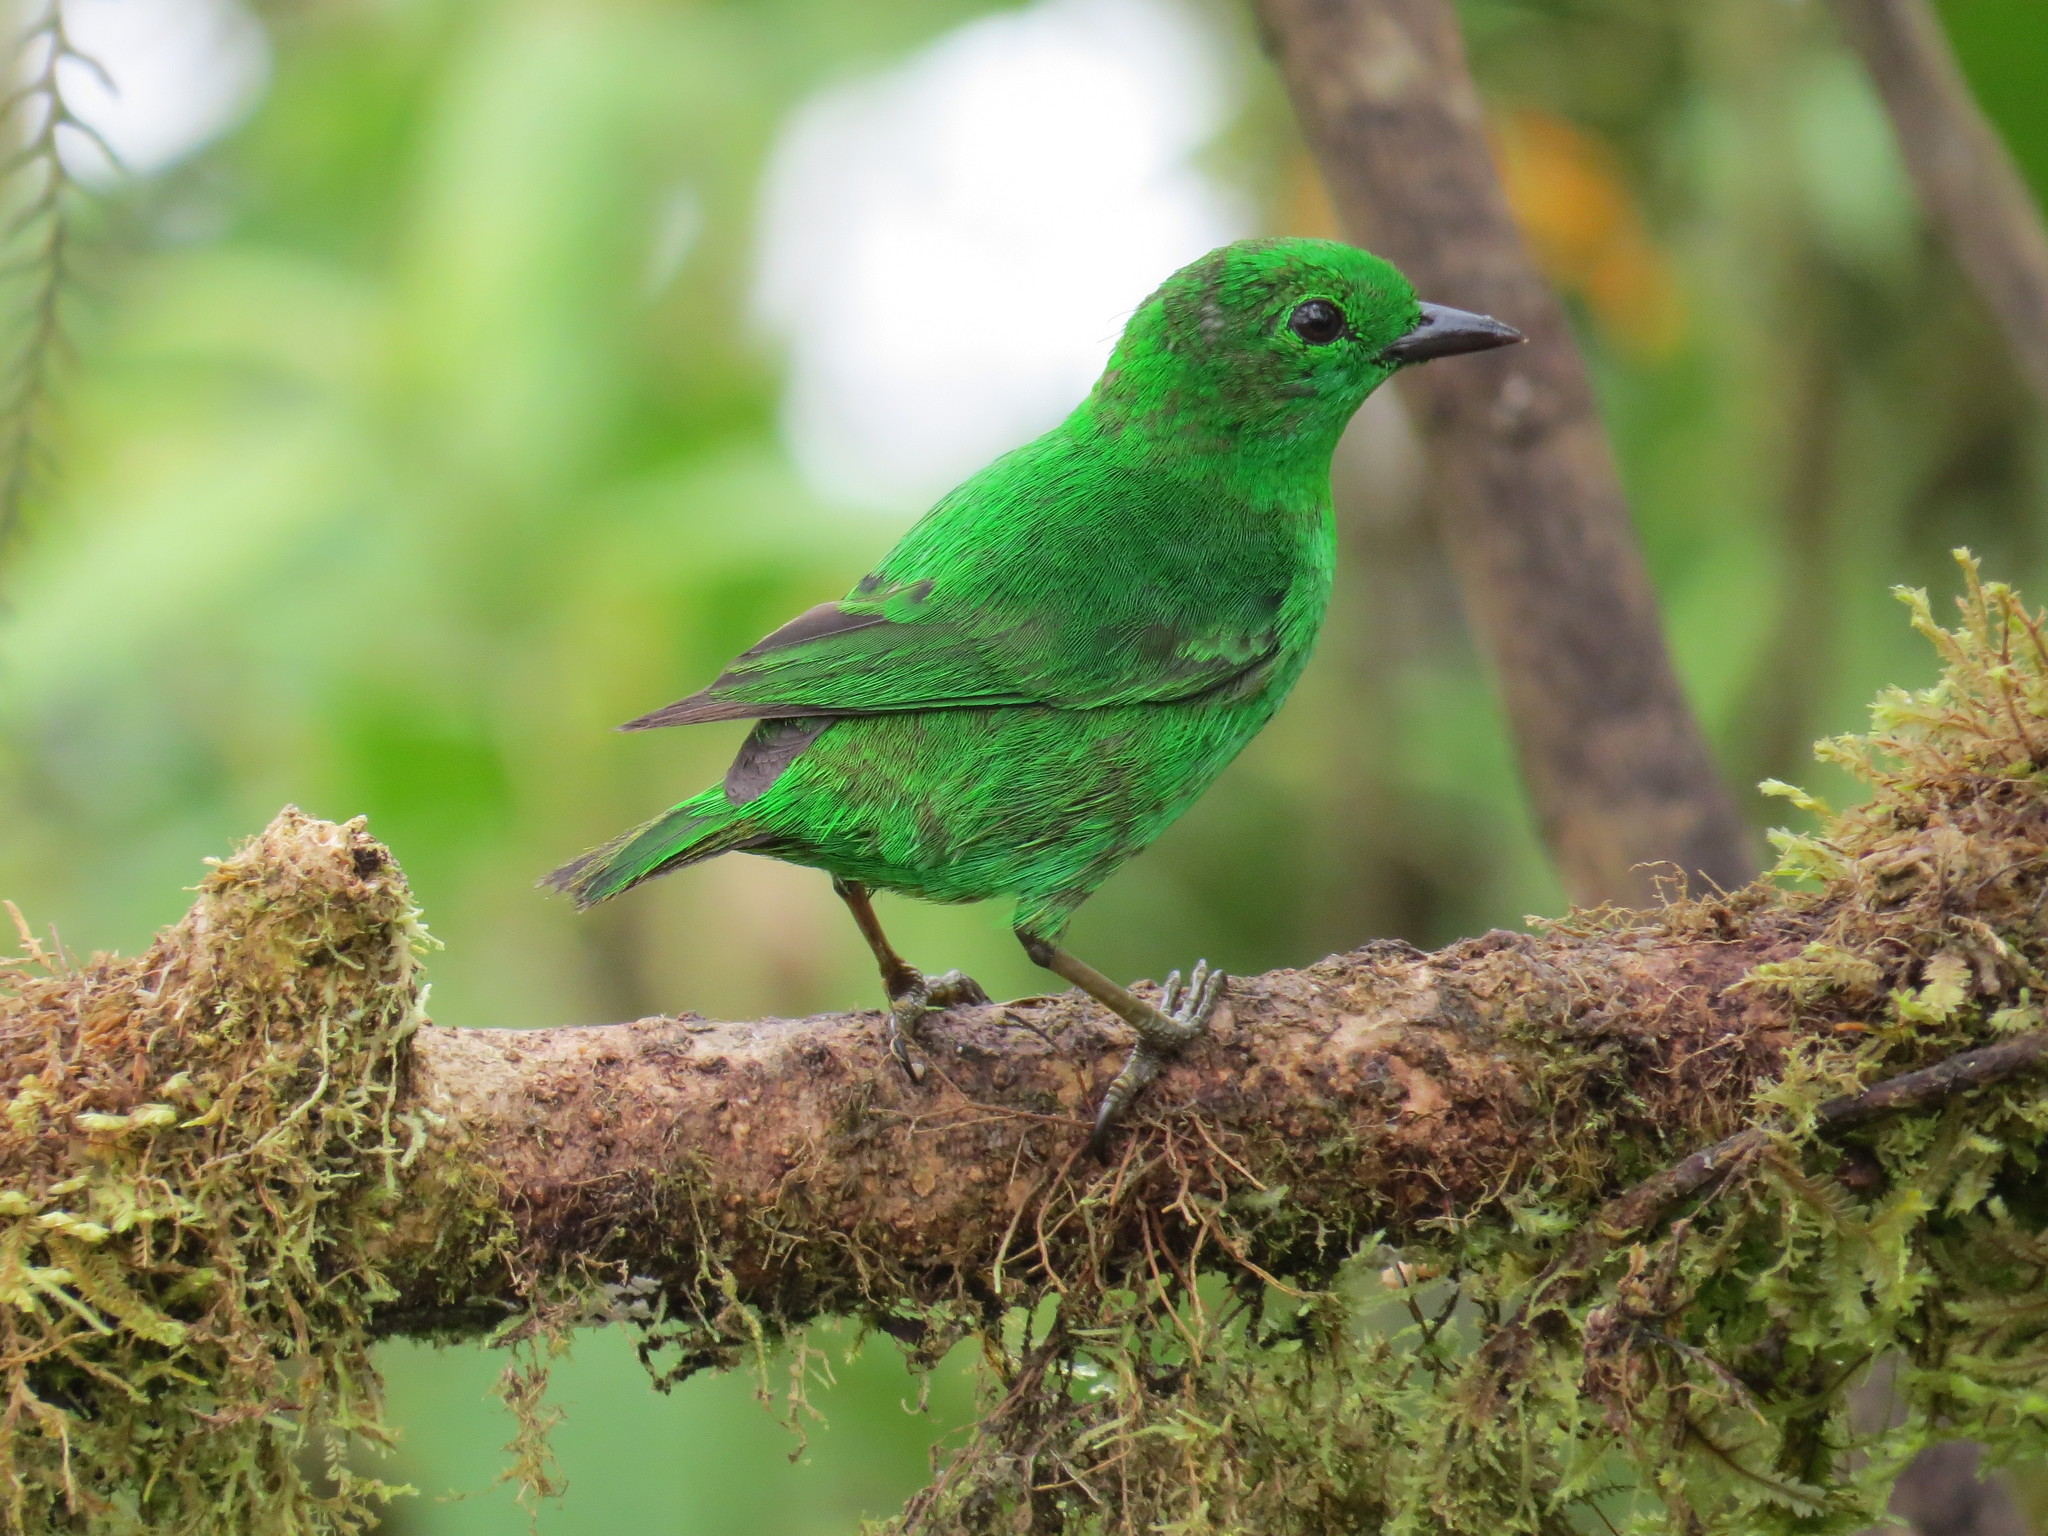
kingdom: Animalia
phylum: Chordata
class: Aves
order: Passeriformes
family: Thraupidae
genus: Chlorochrysa
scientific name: Chlorochrysa phoenicotis
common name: Glistening-green tanager
